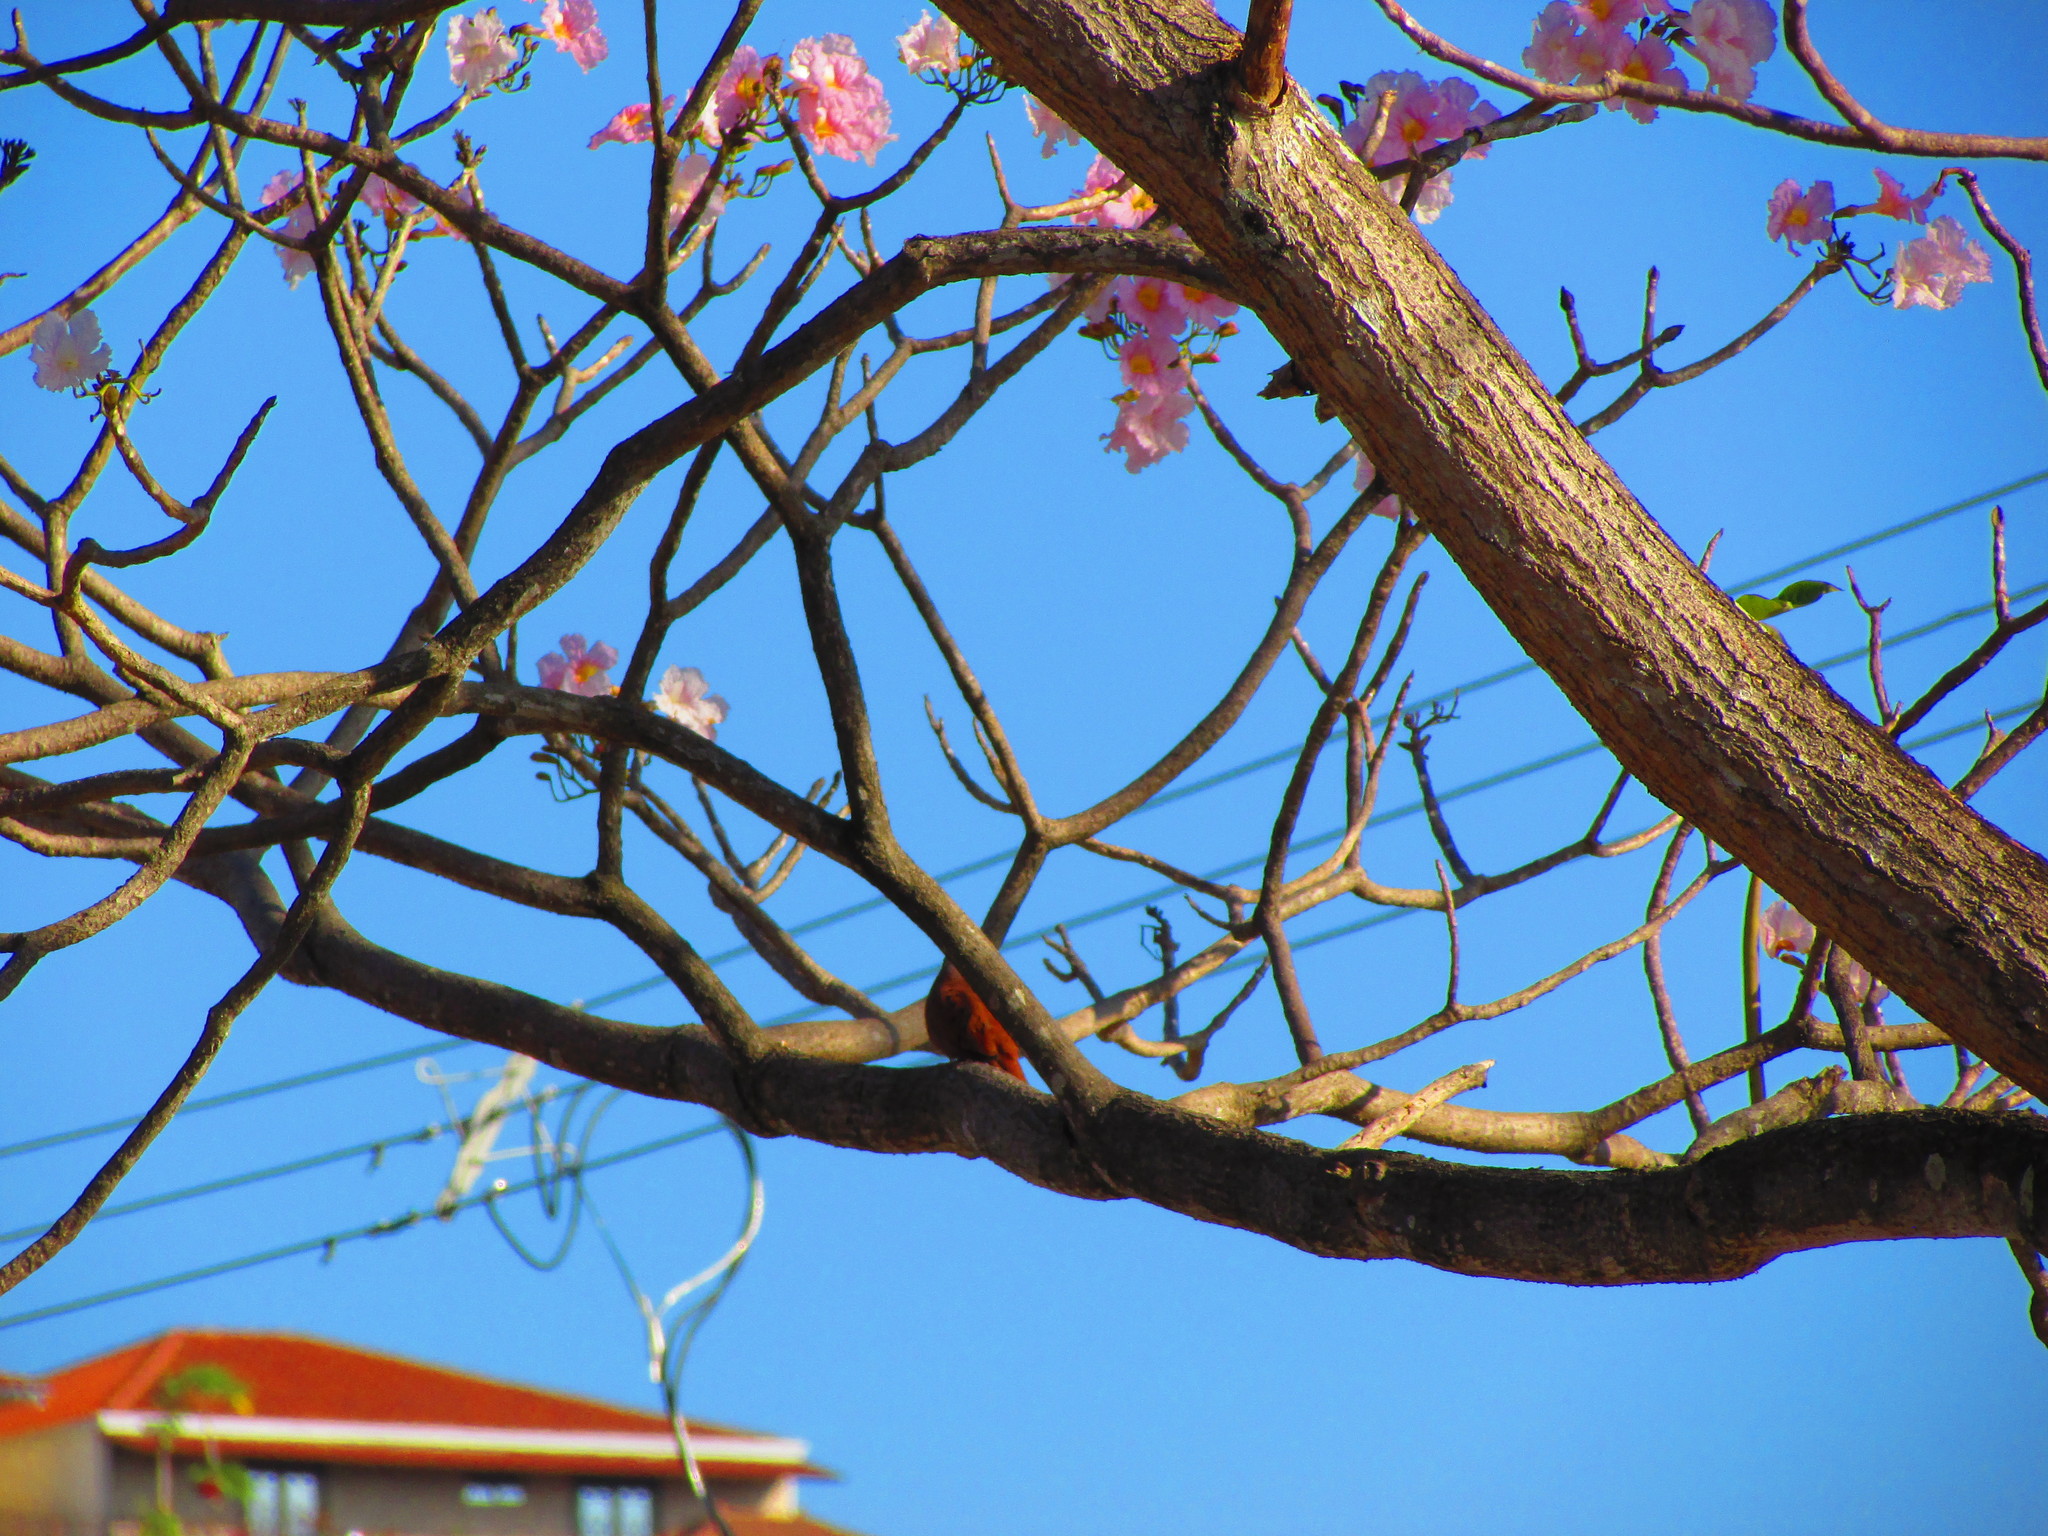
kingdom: Plantae
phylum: Tracheophyta
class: Magnoliopsida
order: Lamiales
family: Bignoniaceae
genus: Tabebuia
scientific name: Tabebuia rosea
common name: Pink poui
